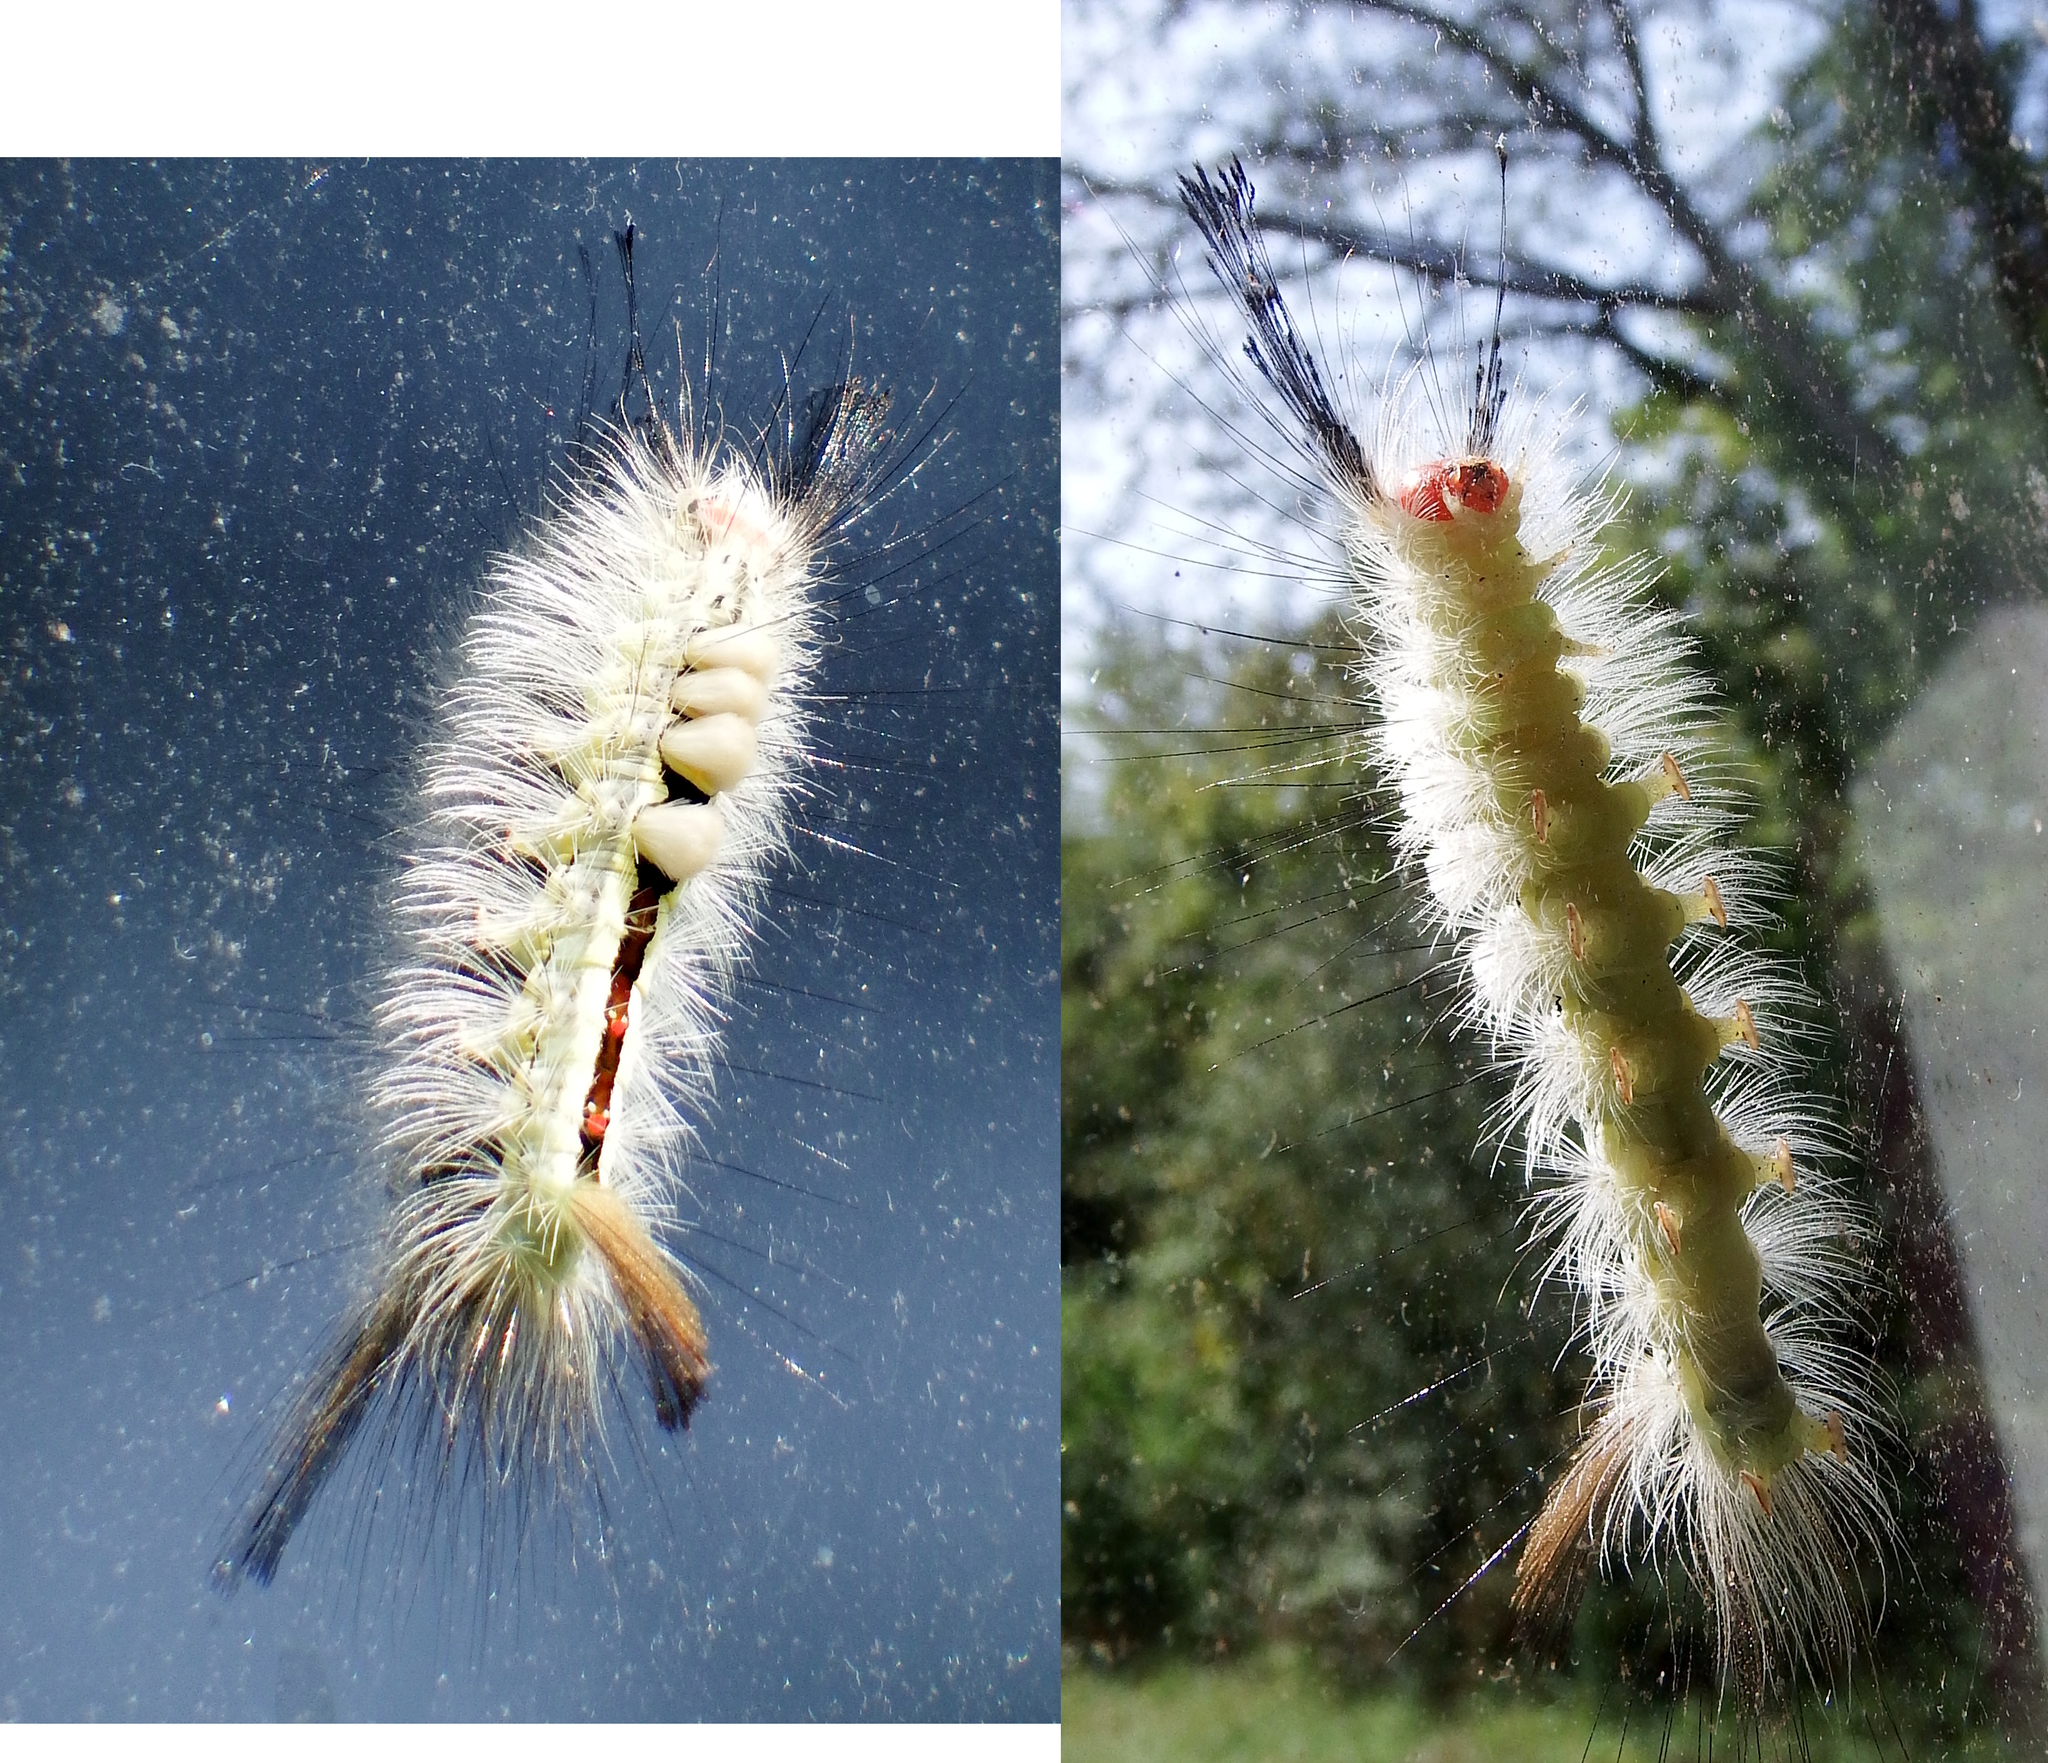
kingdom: Animalia
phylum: Arthropoda
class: Insecta
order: Lepidoptera
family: Erebidae
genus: Orgyia
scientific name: Orgyia leucostigma
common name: White-marked tussock moth
